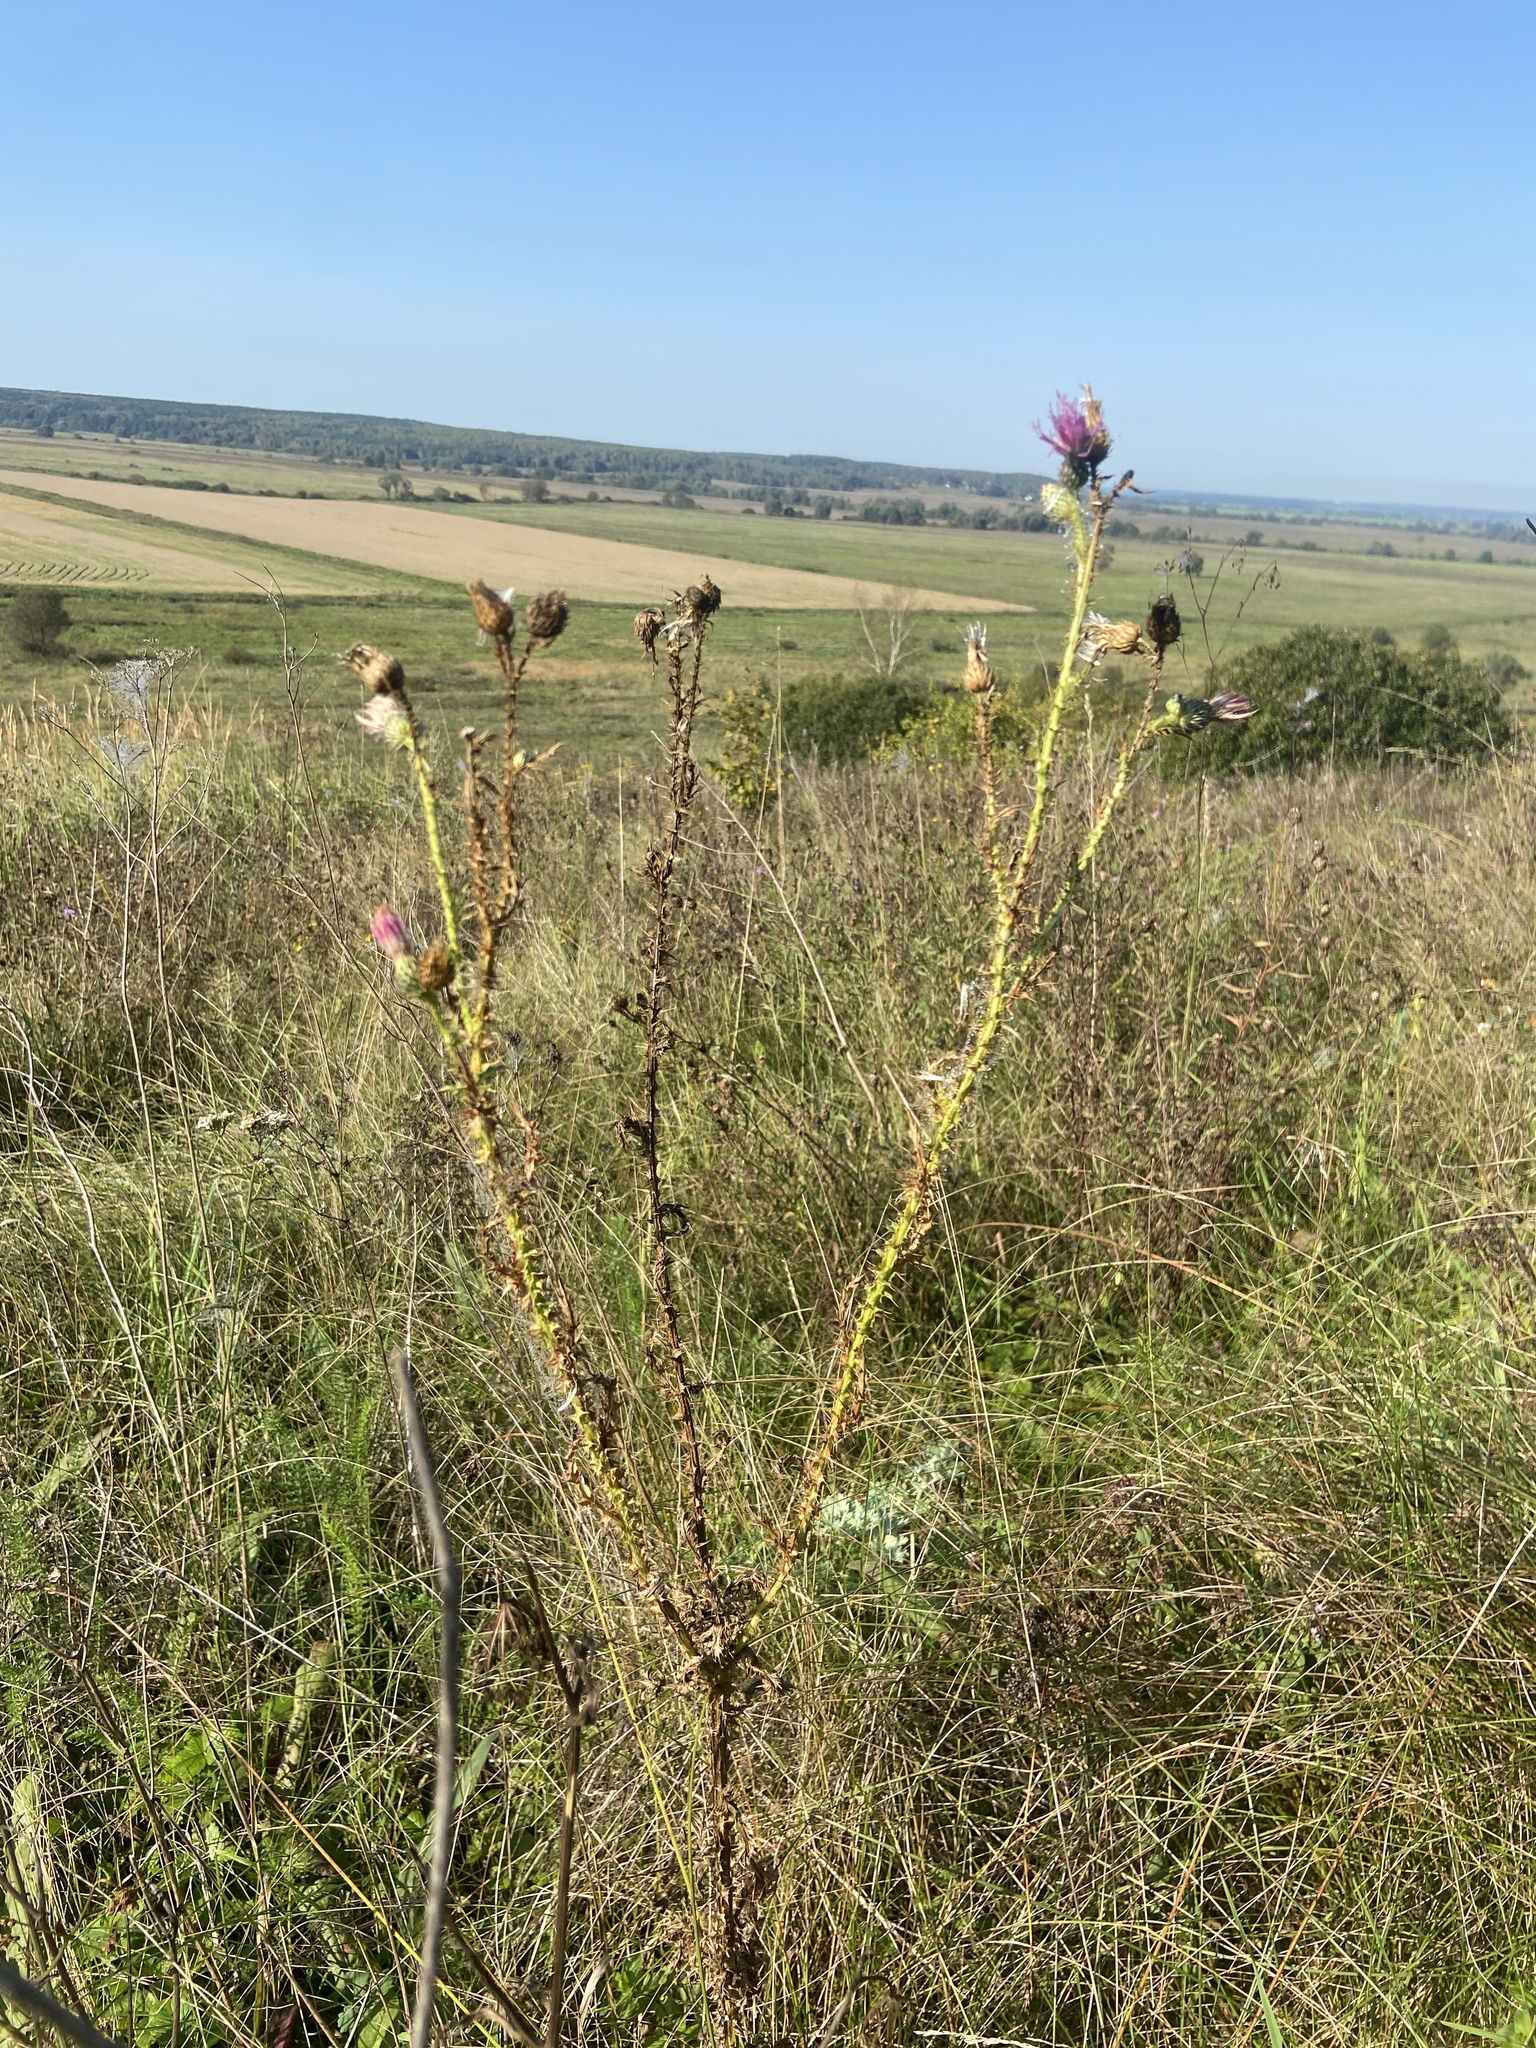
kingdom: Plantae
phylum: Tracheophyta
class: Magnoliopsida
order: Asterales
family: Asteraceae
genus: Carduus
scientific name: Carduus acanthoides
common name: Plumeless thistle
